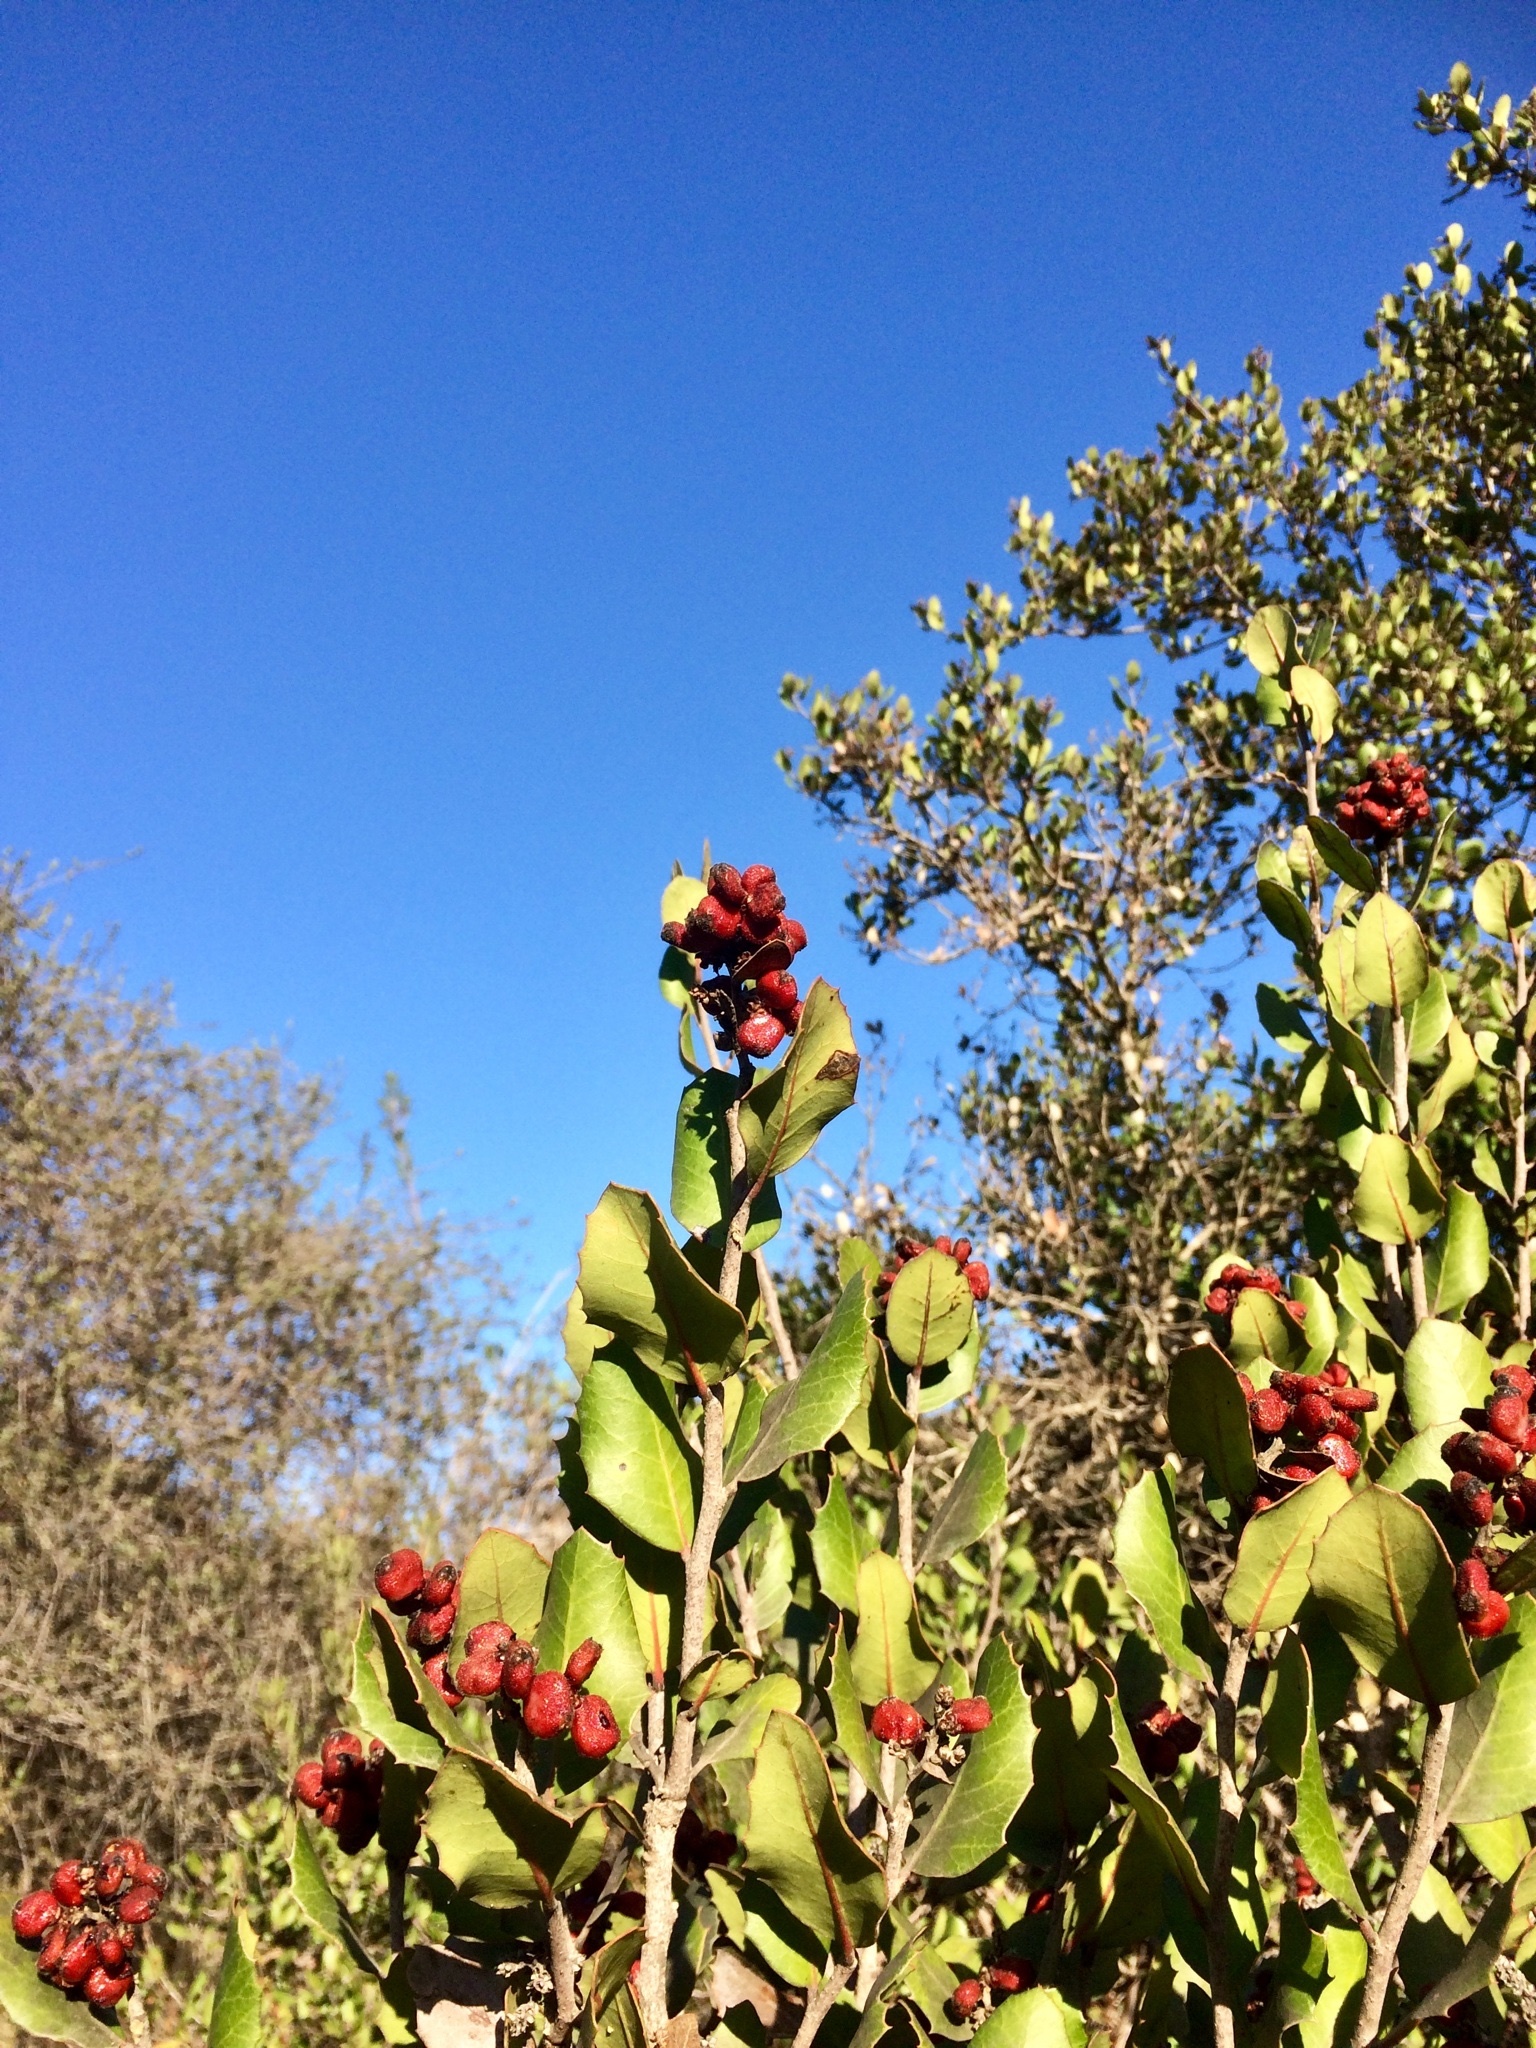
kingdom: Plantae
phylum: Tracheophyta
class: Magnoliopsida
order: Sapindales
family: Anacardiaceae
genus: Rhus
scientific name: Rhus integrifolia
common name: Lemonade sumac
